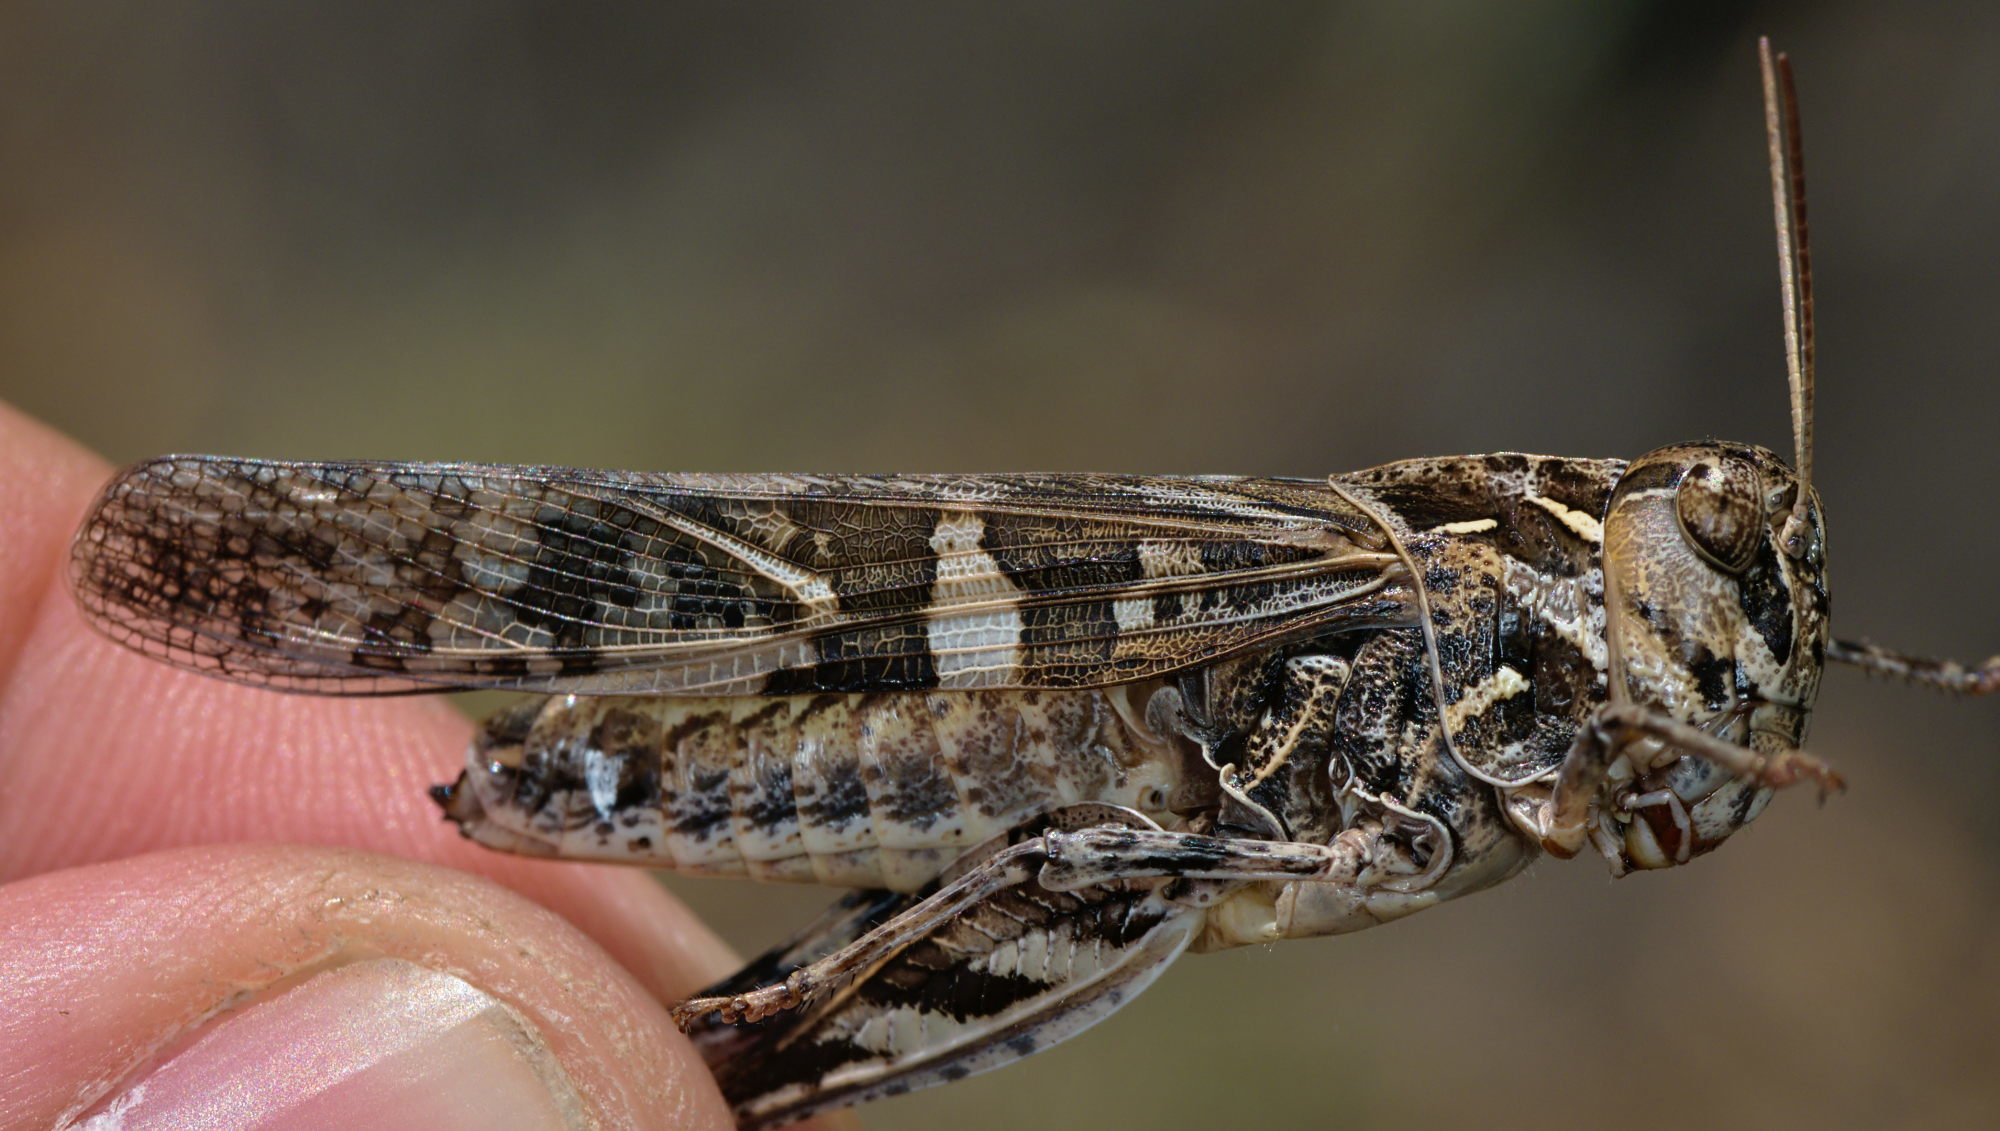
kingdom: Animalia
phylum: Arthropoda
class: Insecta
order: Orthoptera
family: Acrididae
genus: Oedaleus
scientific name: Oedaleus decorus
